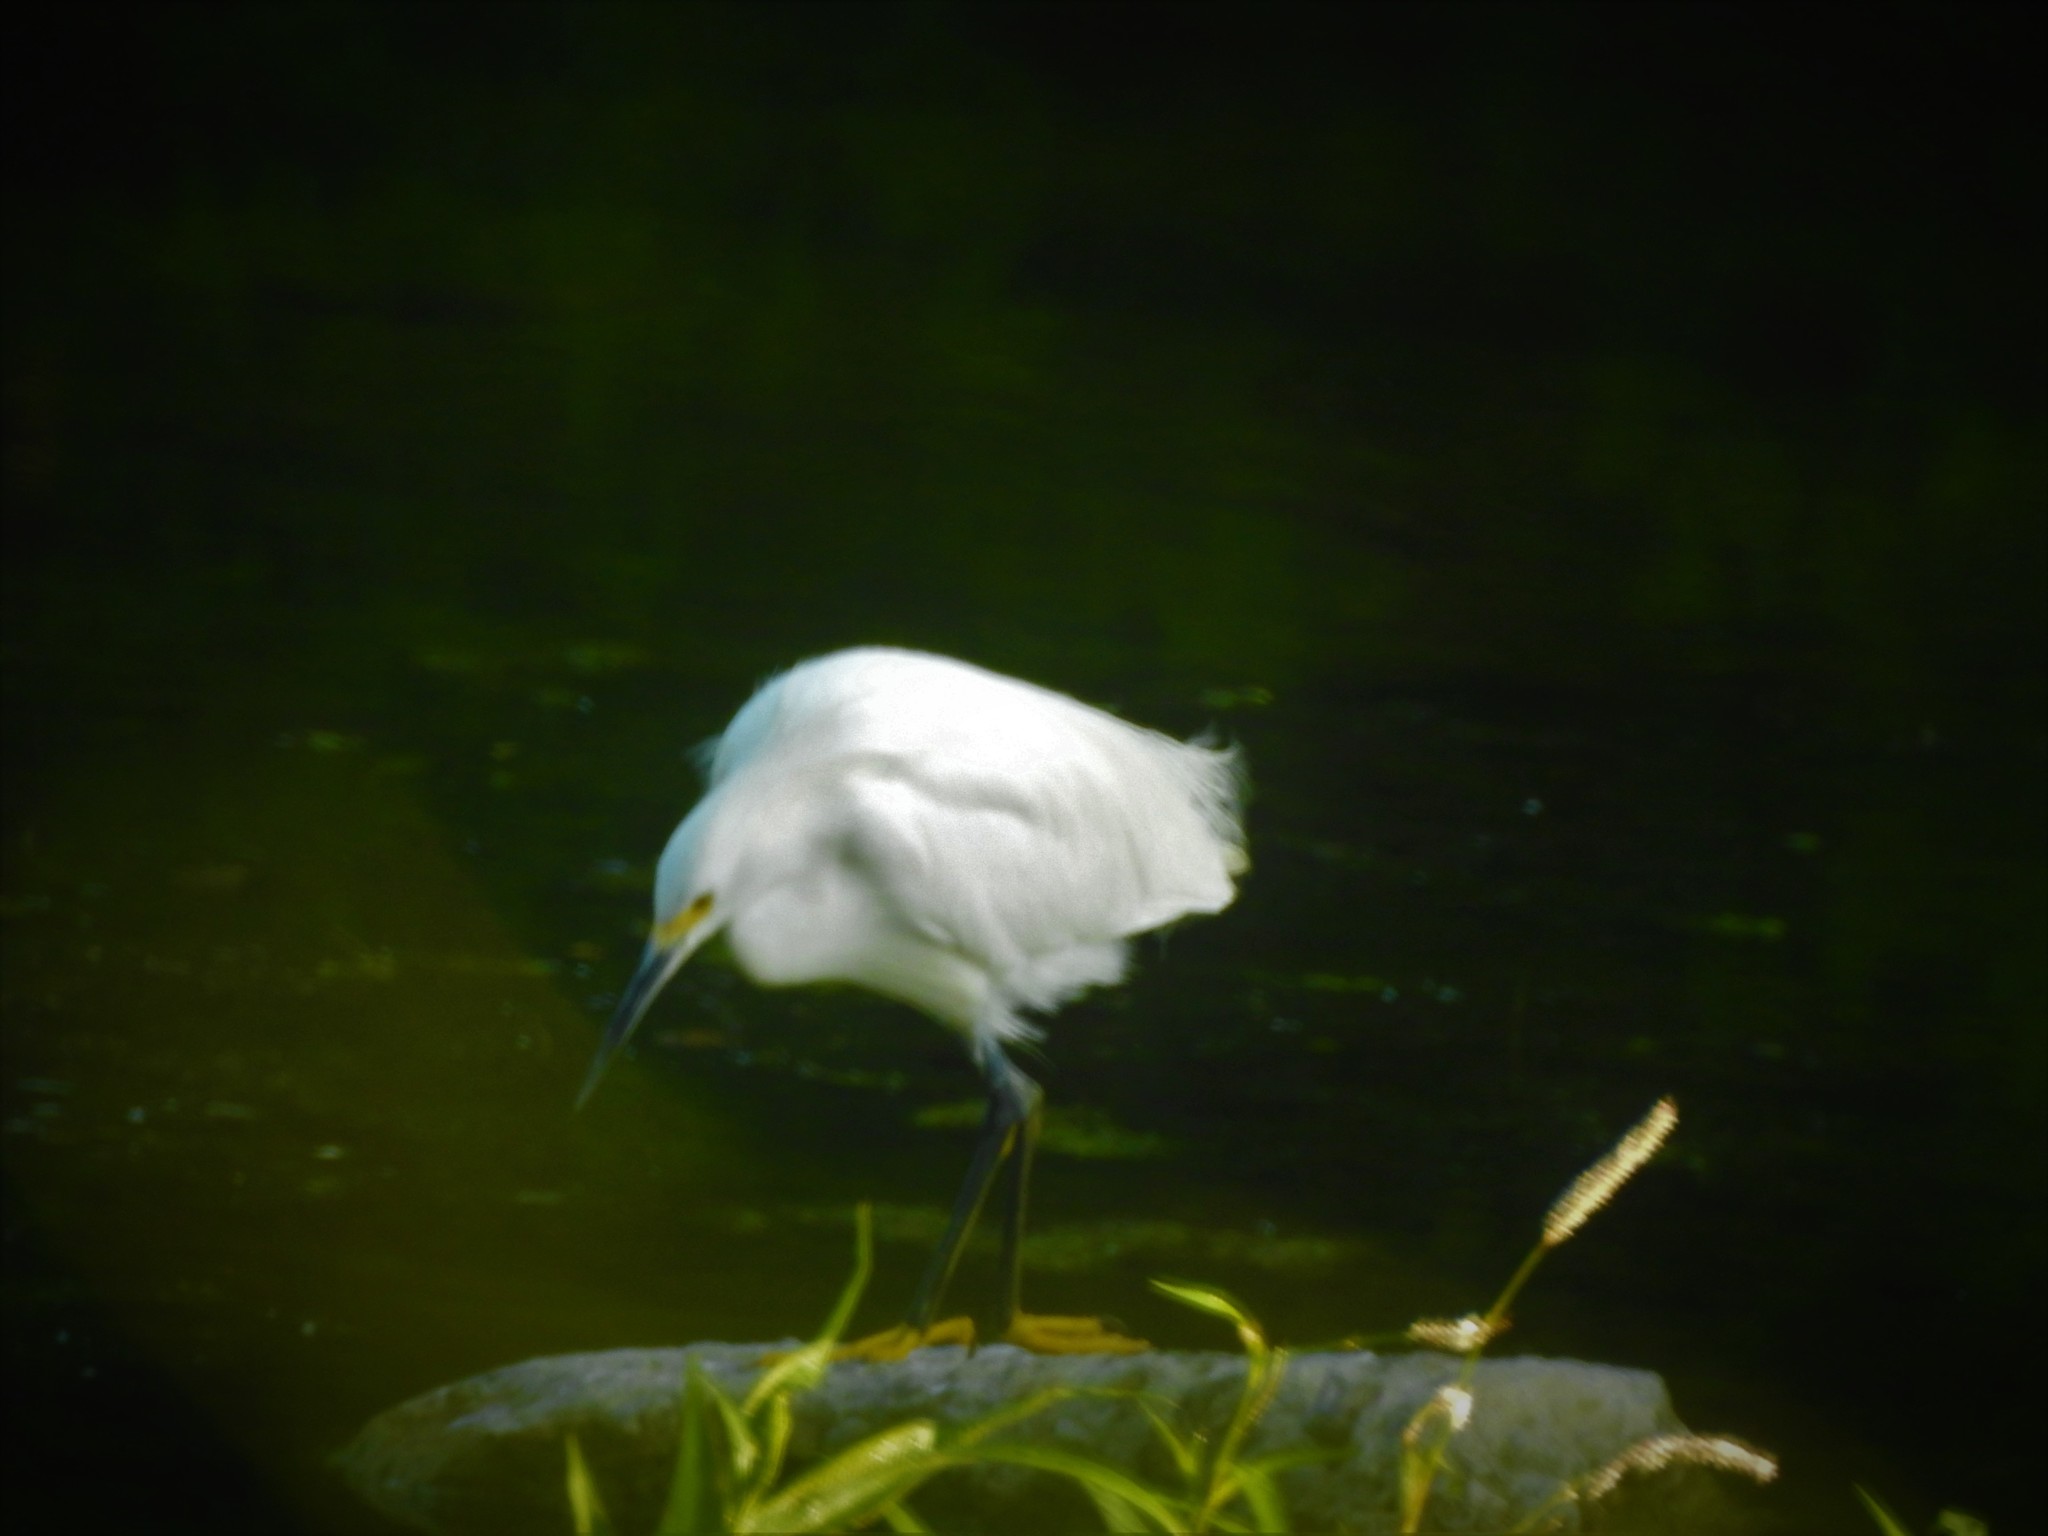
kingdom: Animalia
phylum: Chordata
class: Aves
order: Pelecaniformes
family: Ardeidae
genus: Egretta
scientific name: Egretta thula
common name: Snowy egret
